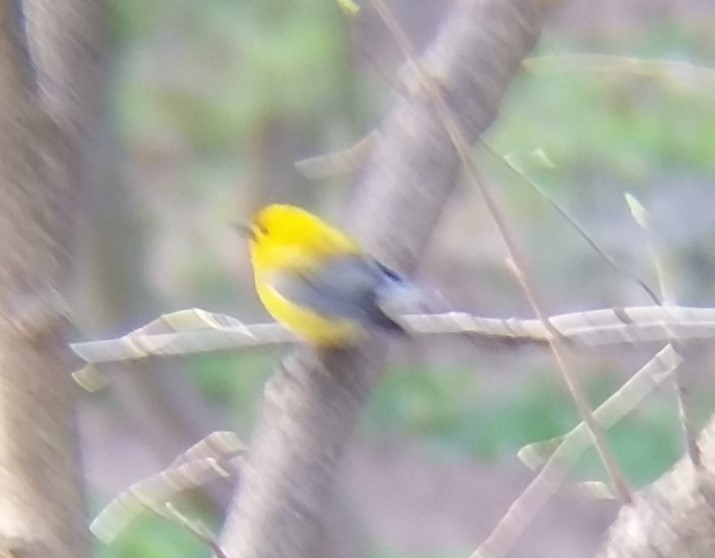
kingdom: Animalia
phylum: Chordata
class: Aves
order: Passeriformes
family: Parulidae
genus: Protonotaria
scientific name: Protonotaria citrea
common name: Prothonotary warbler
